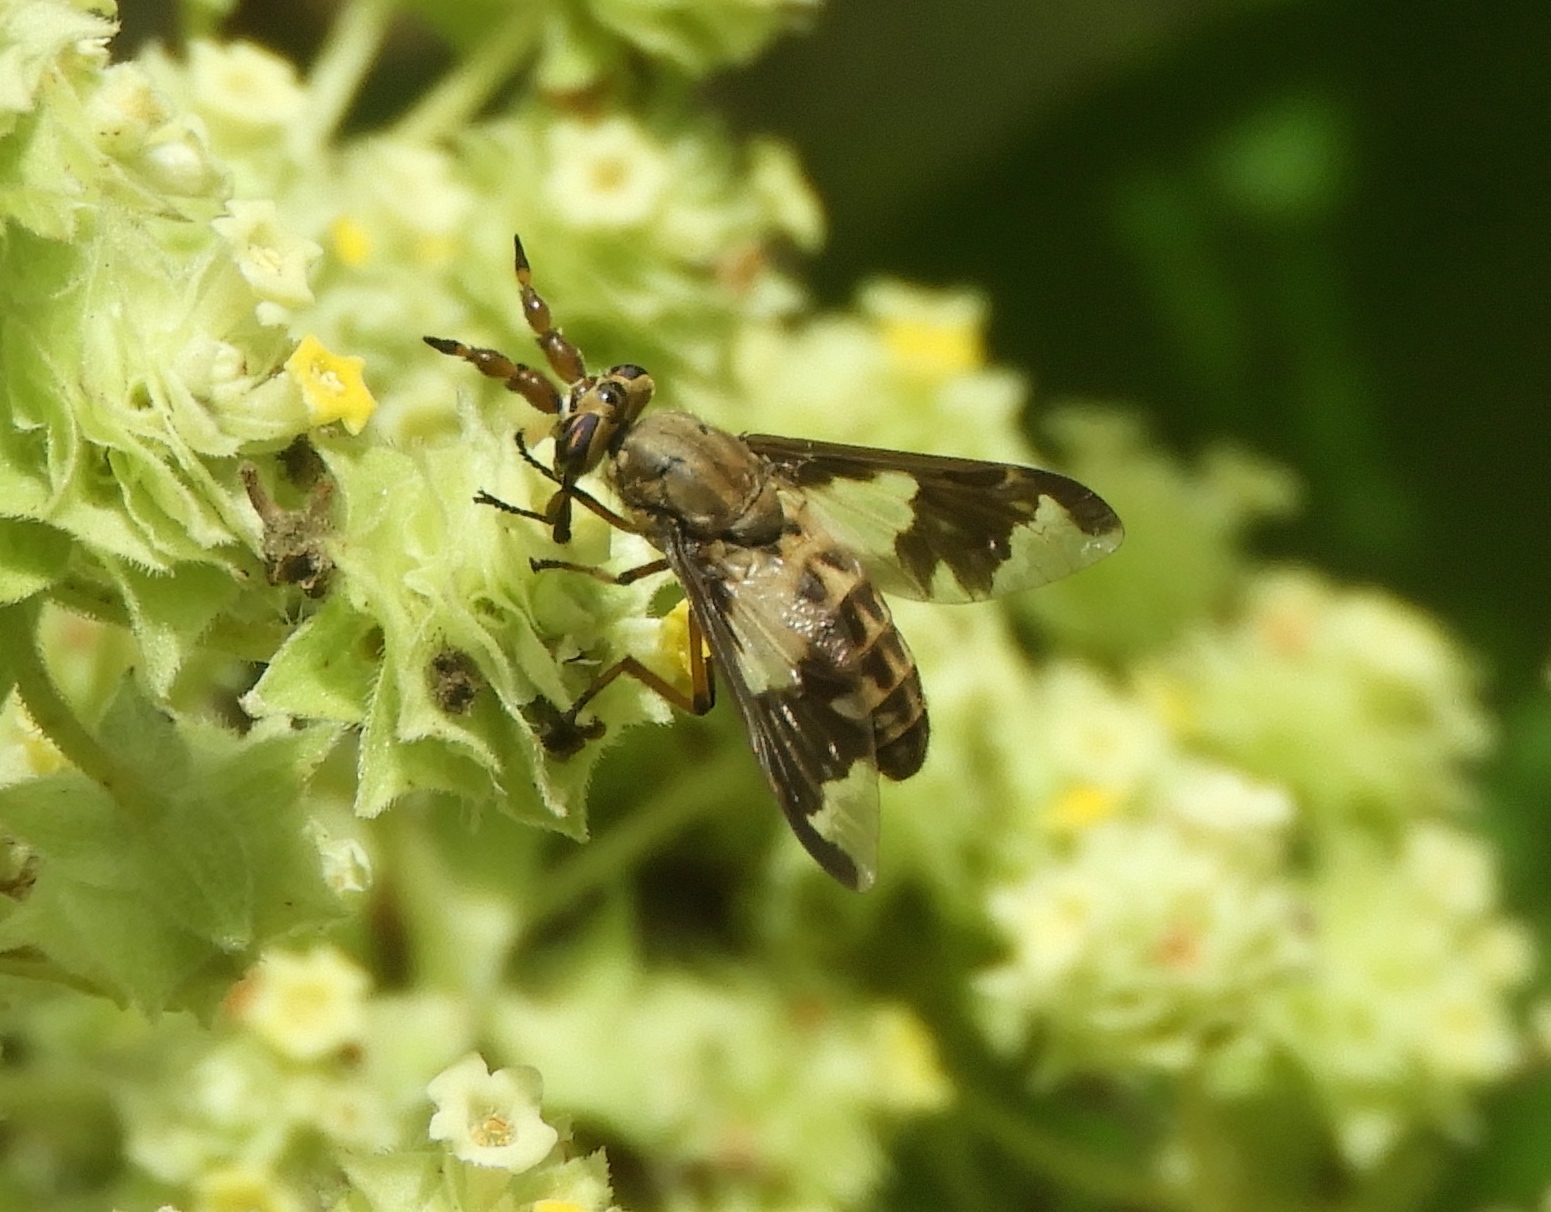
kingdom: Animalia
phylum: Arthropoda
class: Insecta
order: Diptera
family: Tabanidae
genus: Chrysops
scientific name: Chrysops virgulatus
